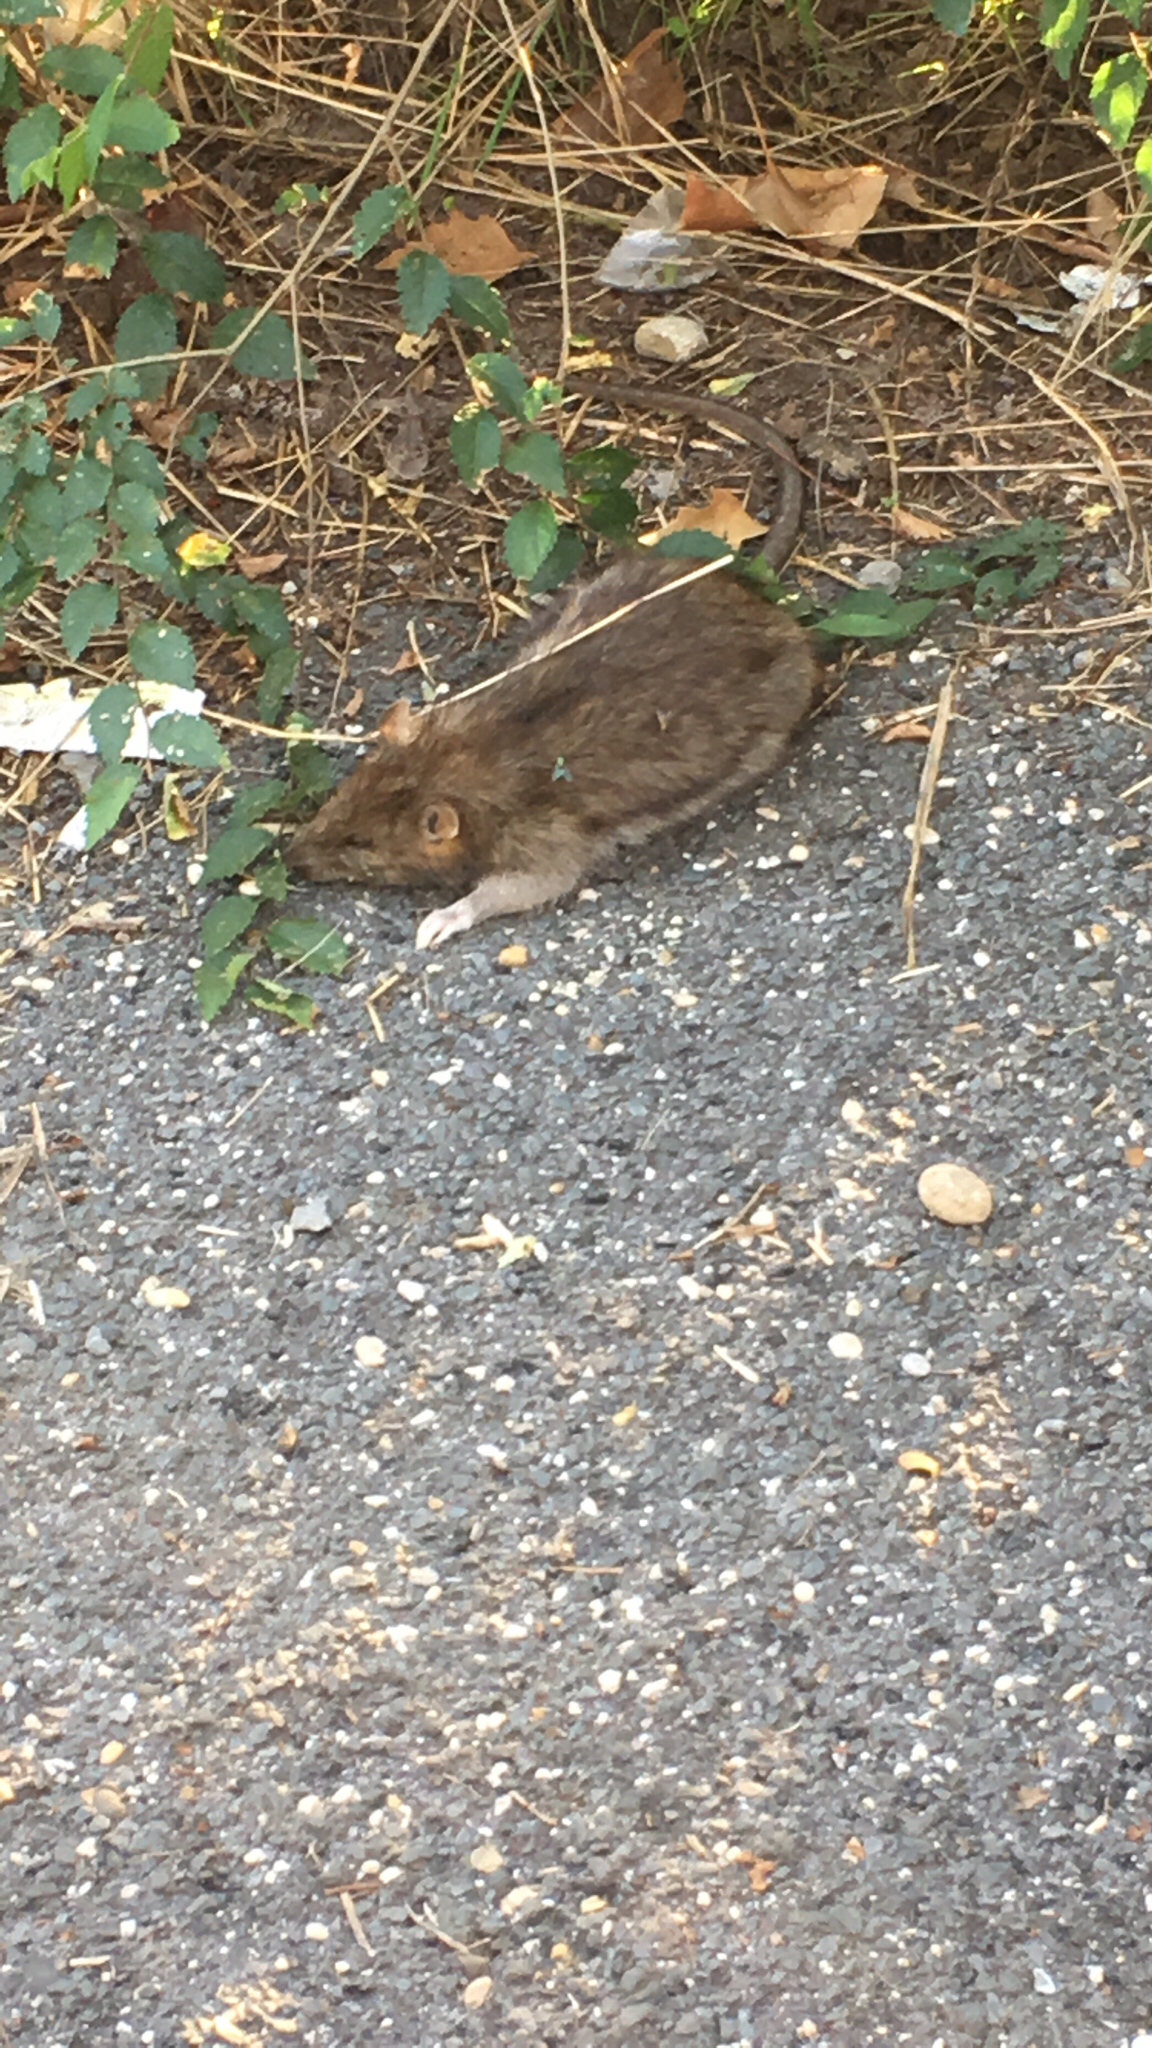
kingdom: Animalia
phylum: Chordata
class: Mammalia
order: Rodentia
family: Muridae
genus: Rattus
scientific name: Rattus norvegicus
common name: Brown rat
